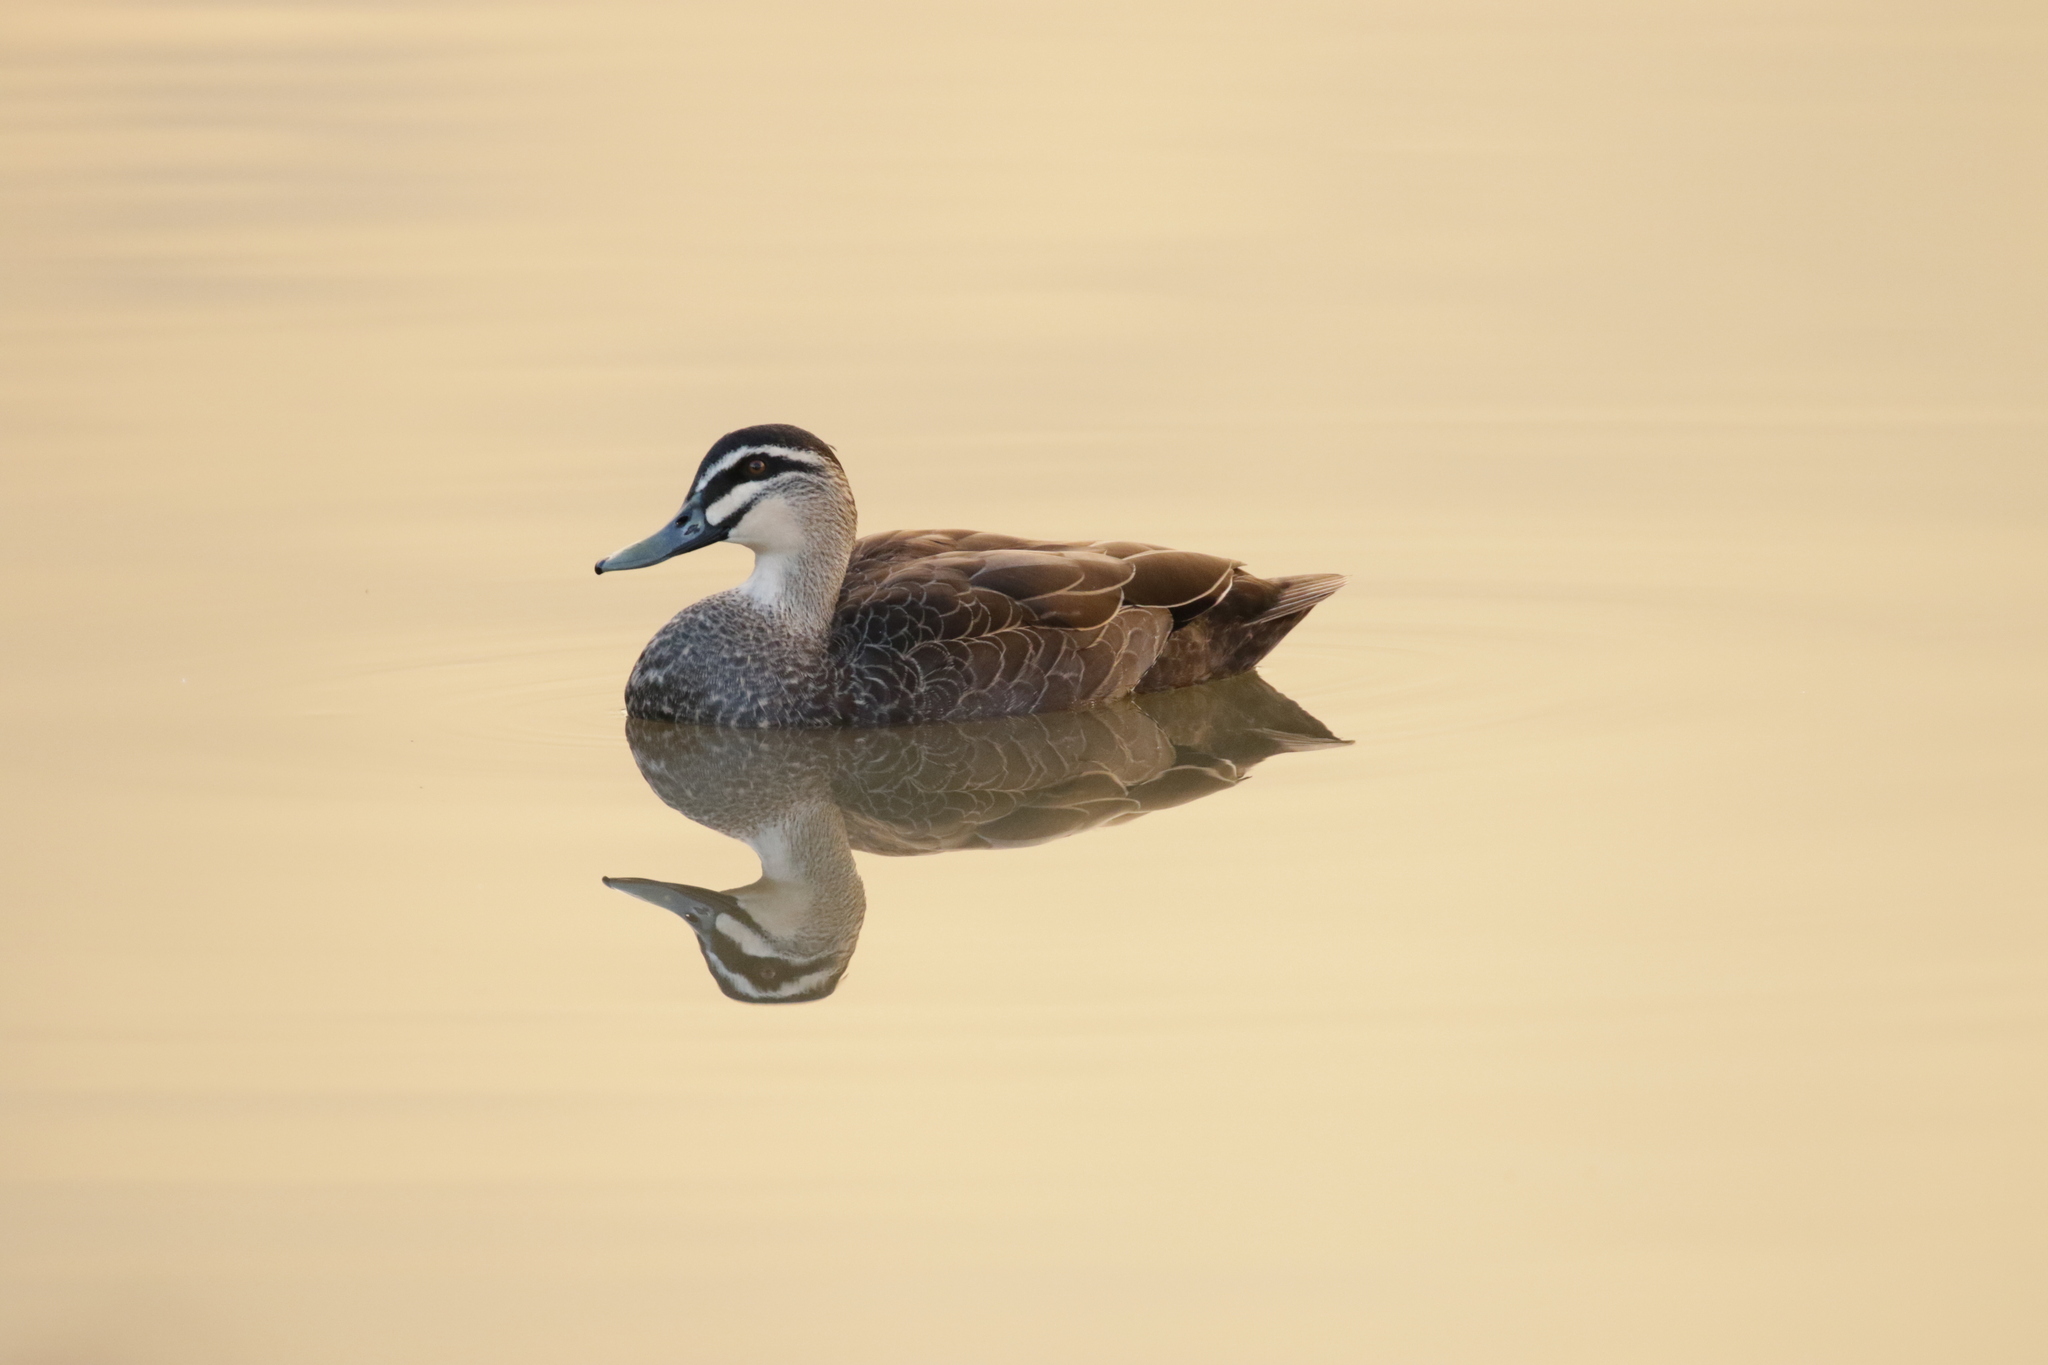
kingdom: Animalia
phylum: Chordata
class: Aves
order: Anseriformes
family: Anatidae
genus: Anas
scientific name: Anas superciliosa
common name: Pacific black duck
